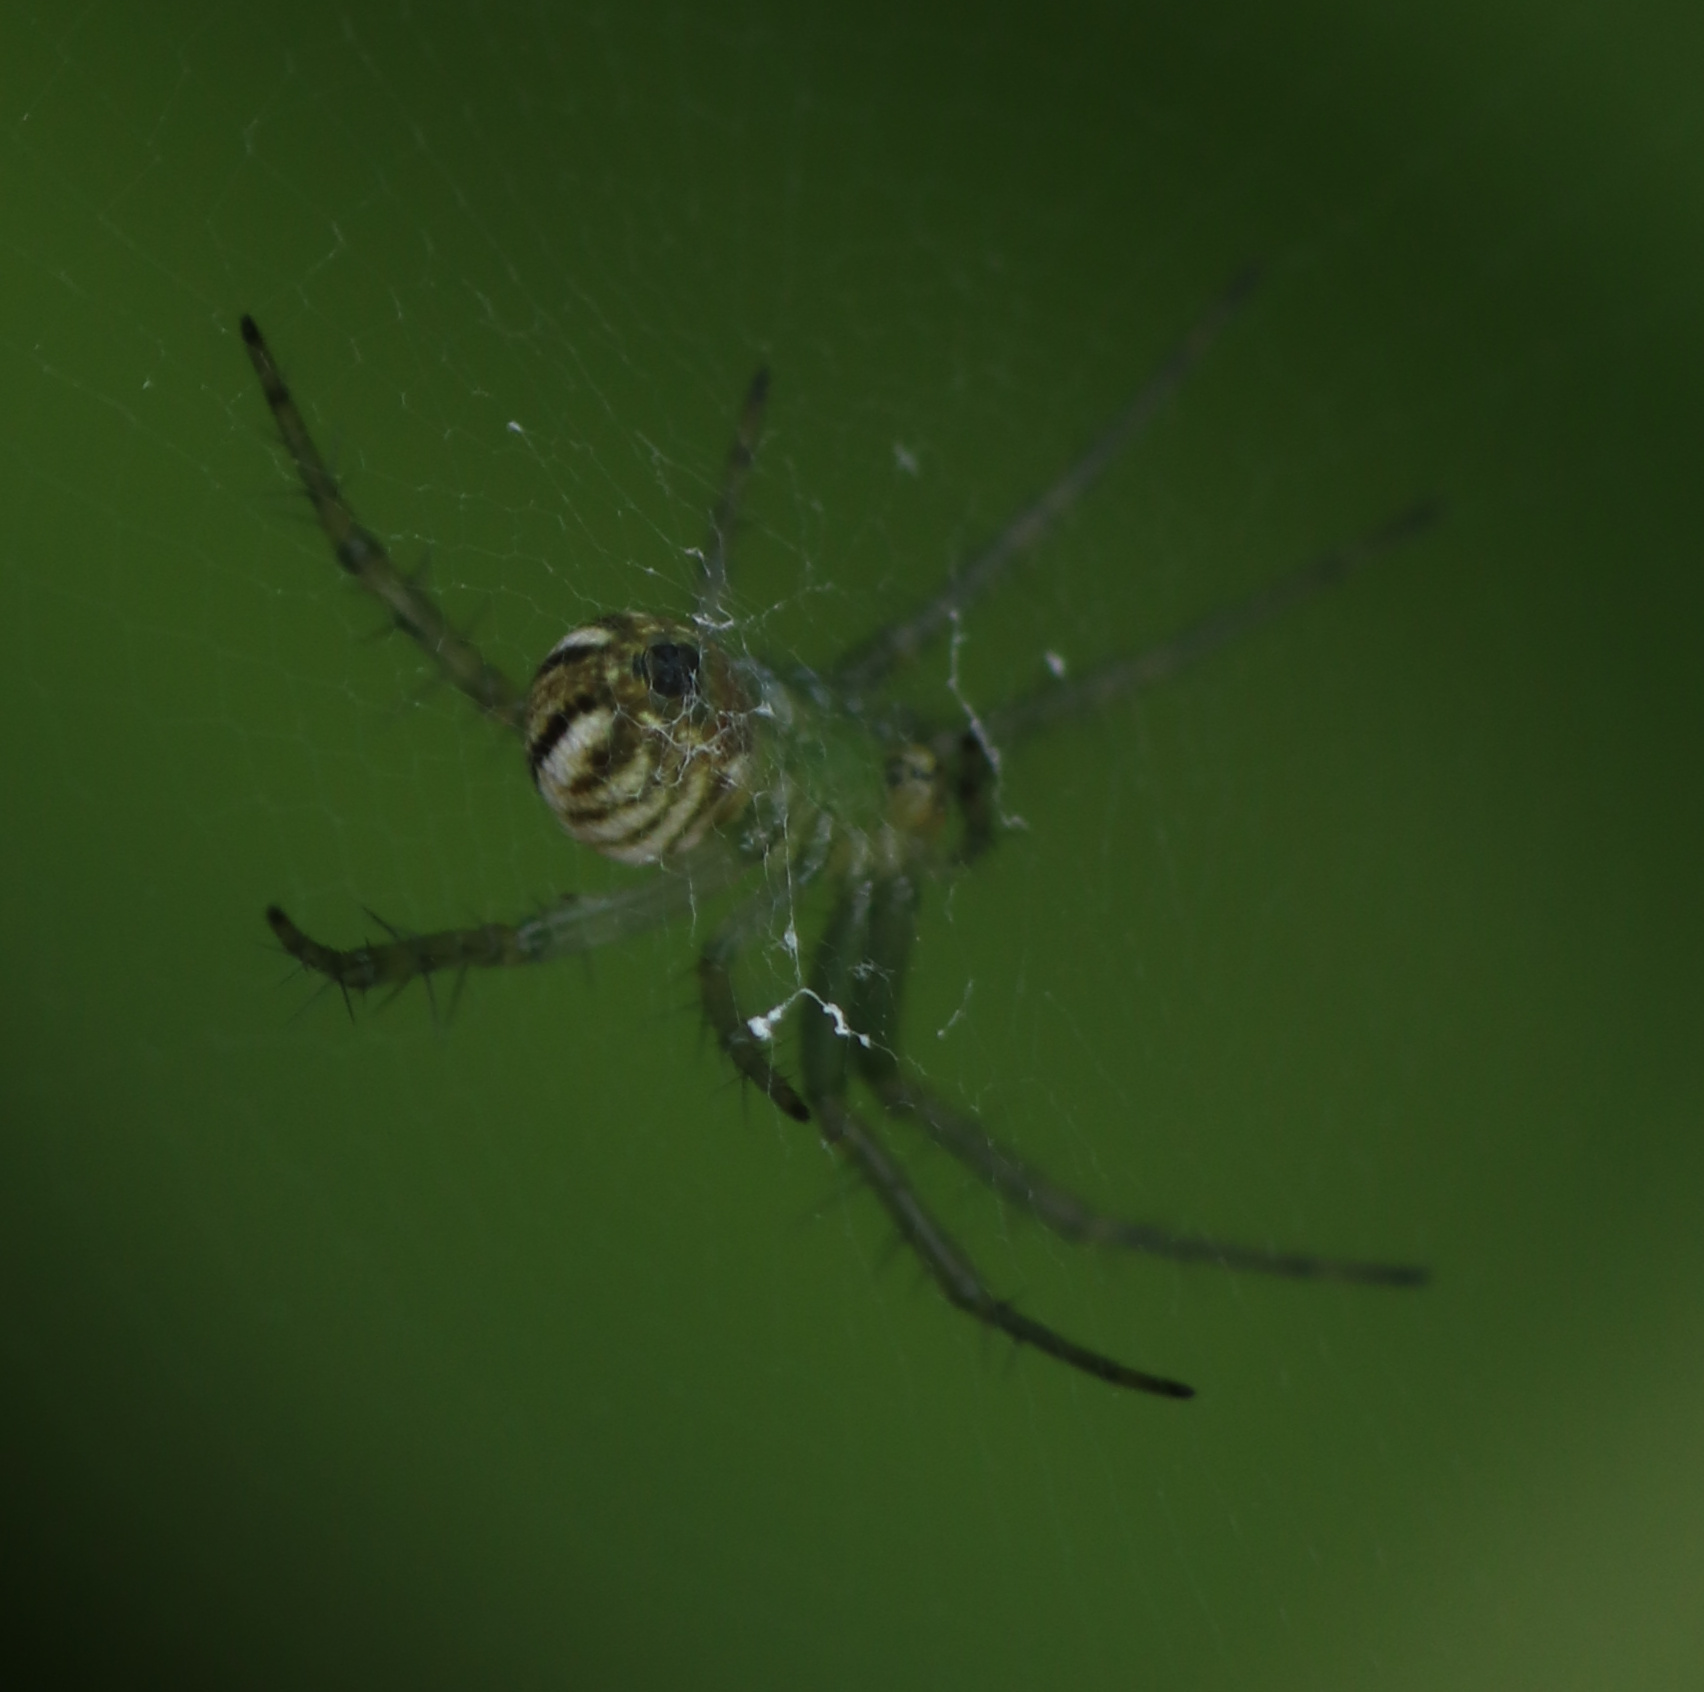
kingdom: Animalia
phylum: Arthropoda
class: Arachnida
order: Araneae
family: Araneidae
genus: Mangora
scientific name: Mangora gibberosa
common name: Lined orbweaver
